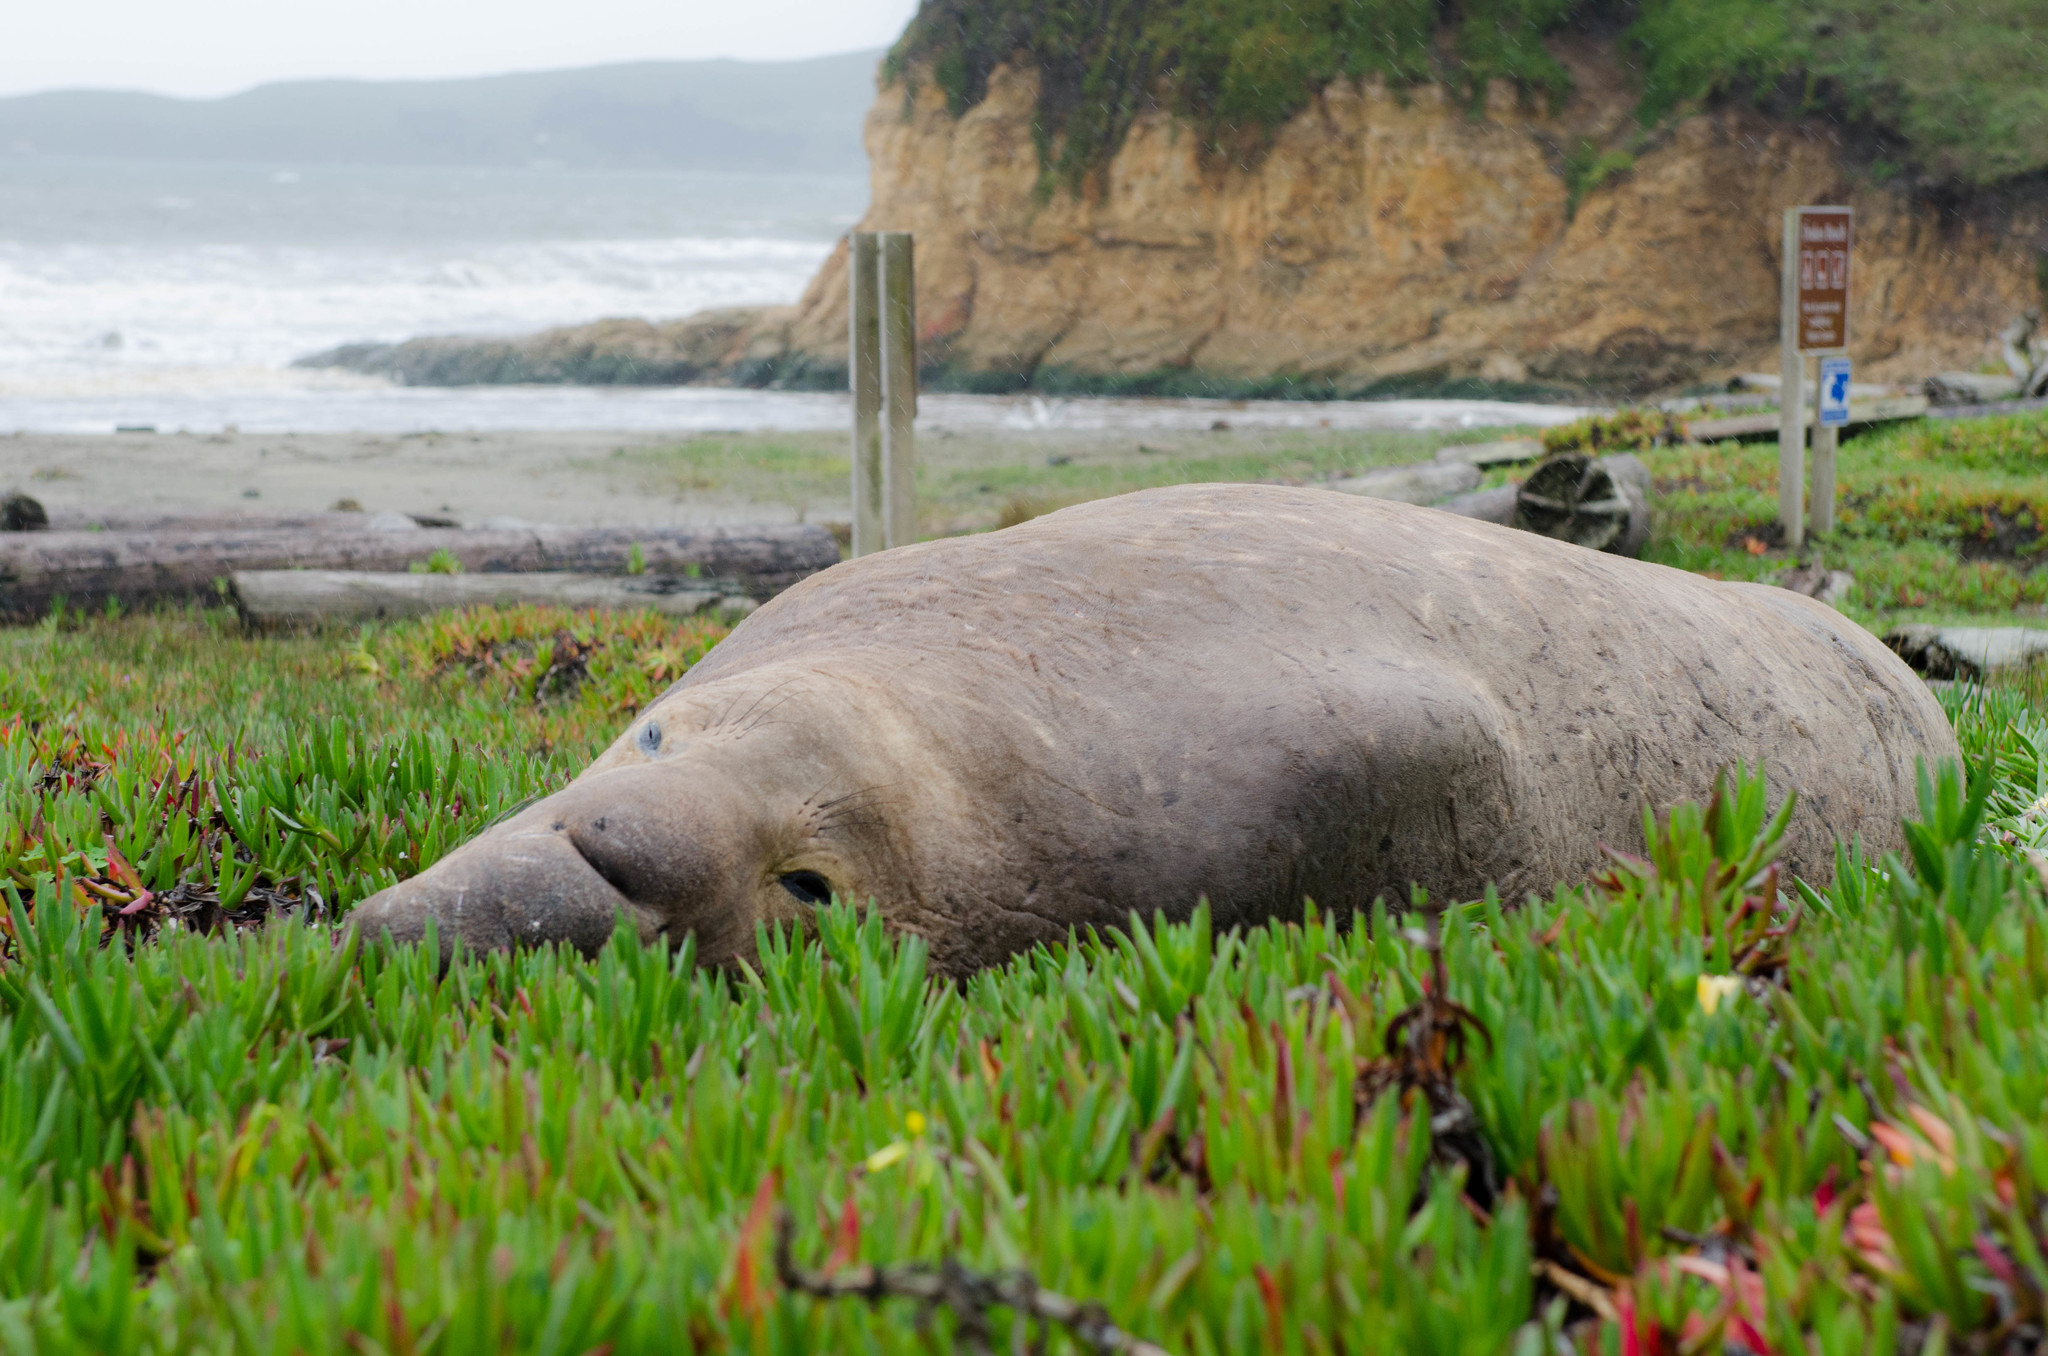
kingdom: Animalia
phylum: Chordata
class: Mammalia
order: Carnivora
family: Phocidae
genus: Mirounga
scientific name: Mirounga angustirostris
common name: Northern elephant seal
